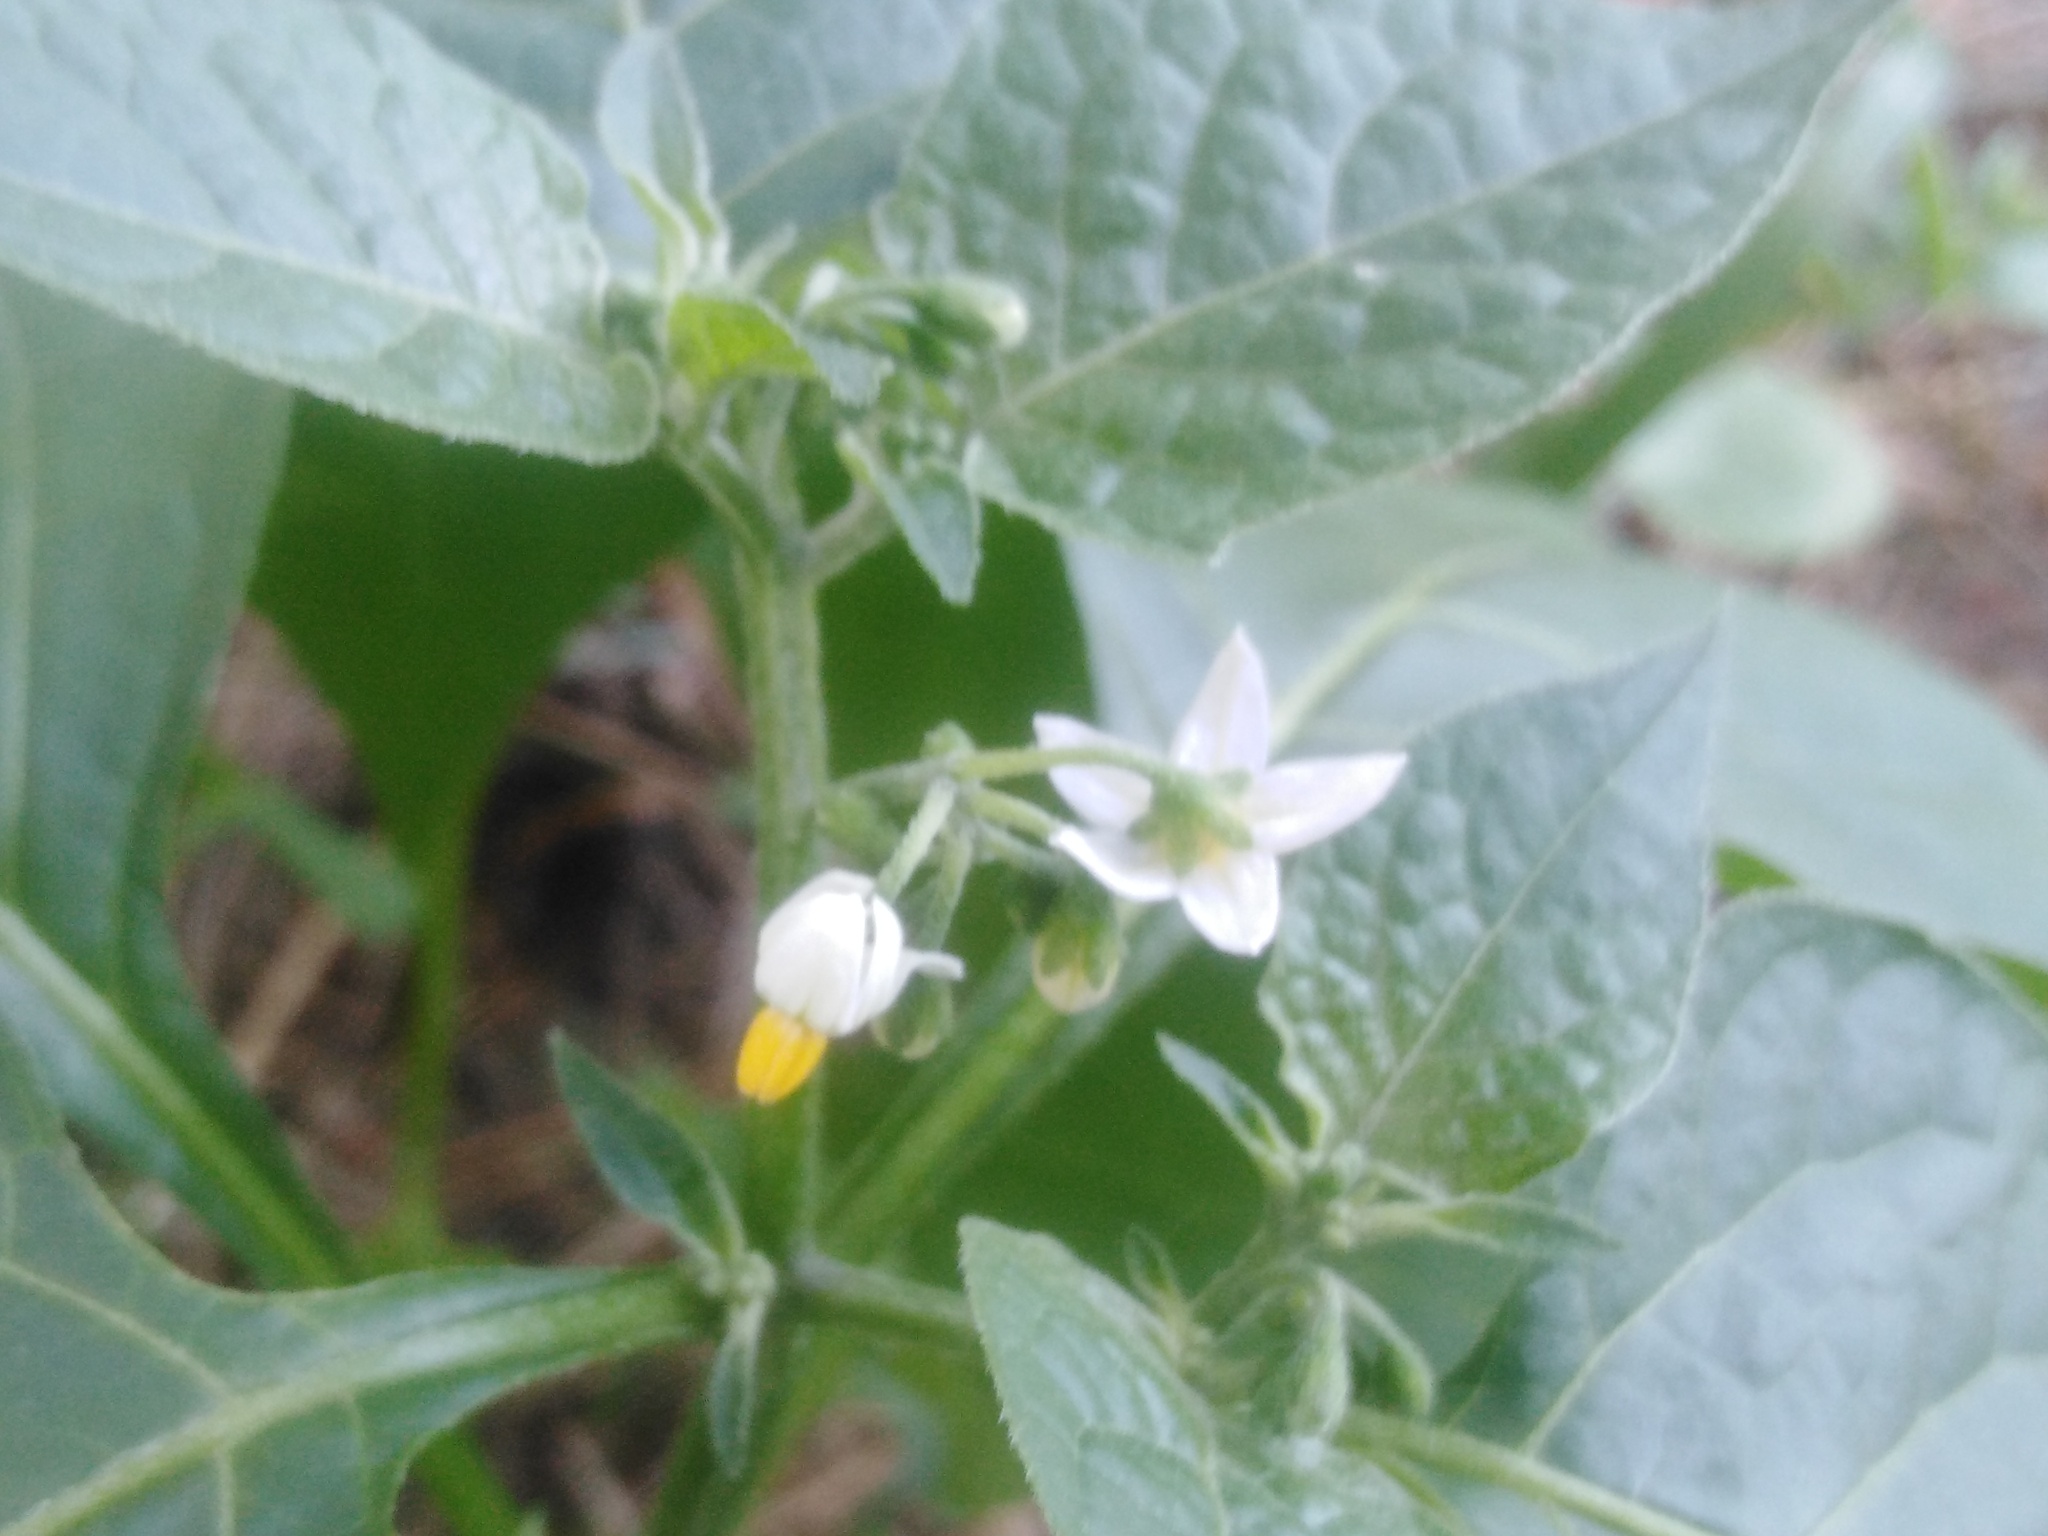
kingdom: Plantae
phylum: Tracheophyta
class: Magnoliopsida
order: Solanales
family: Solanaceae
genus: Solanum
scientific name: Solanum nigrum
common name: Black nightshade
